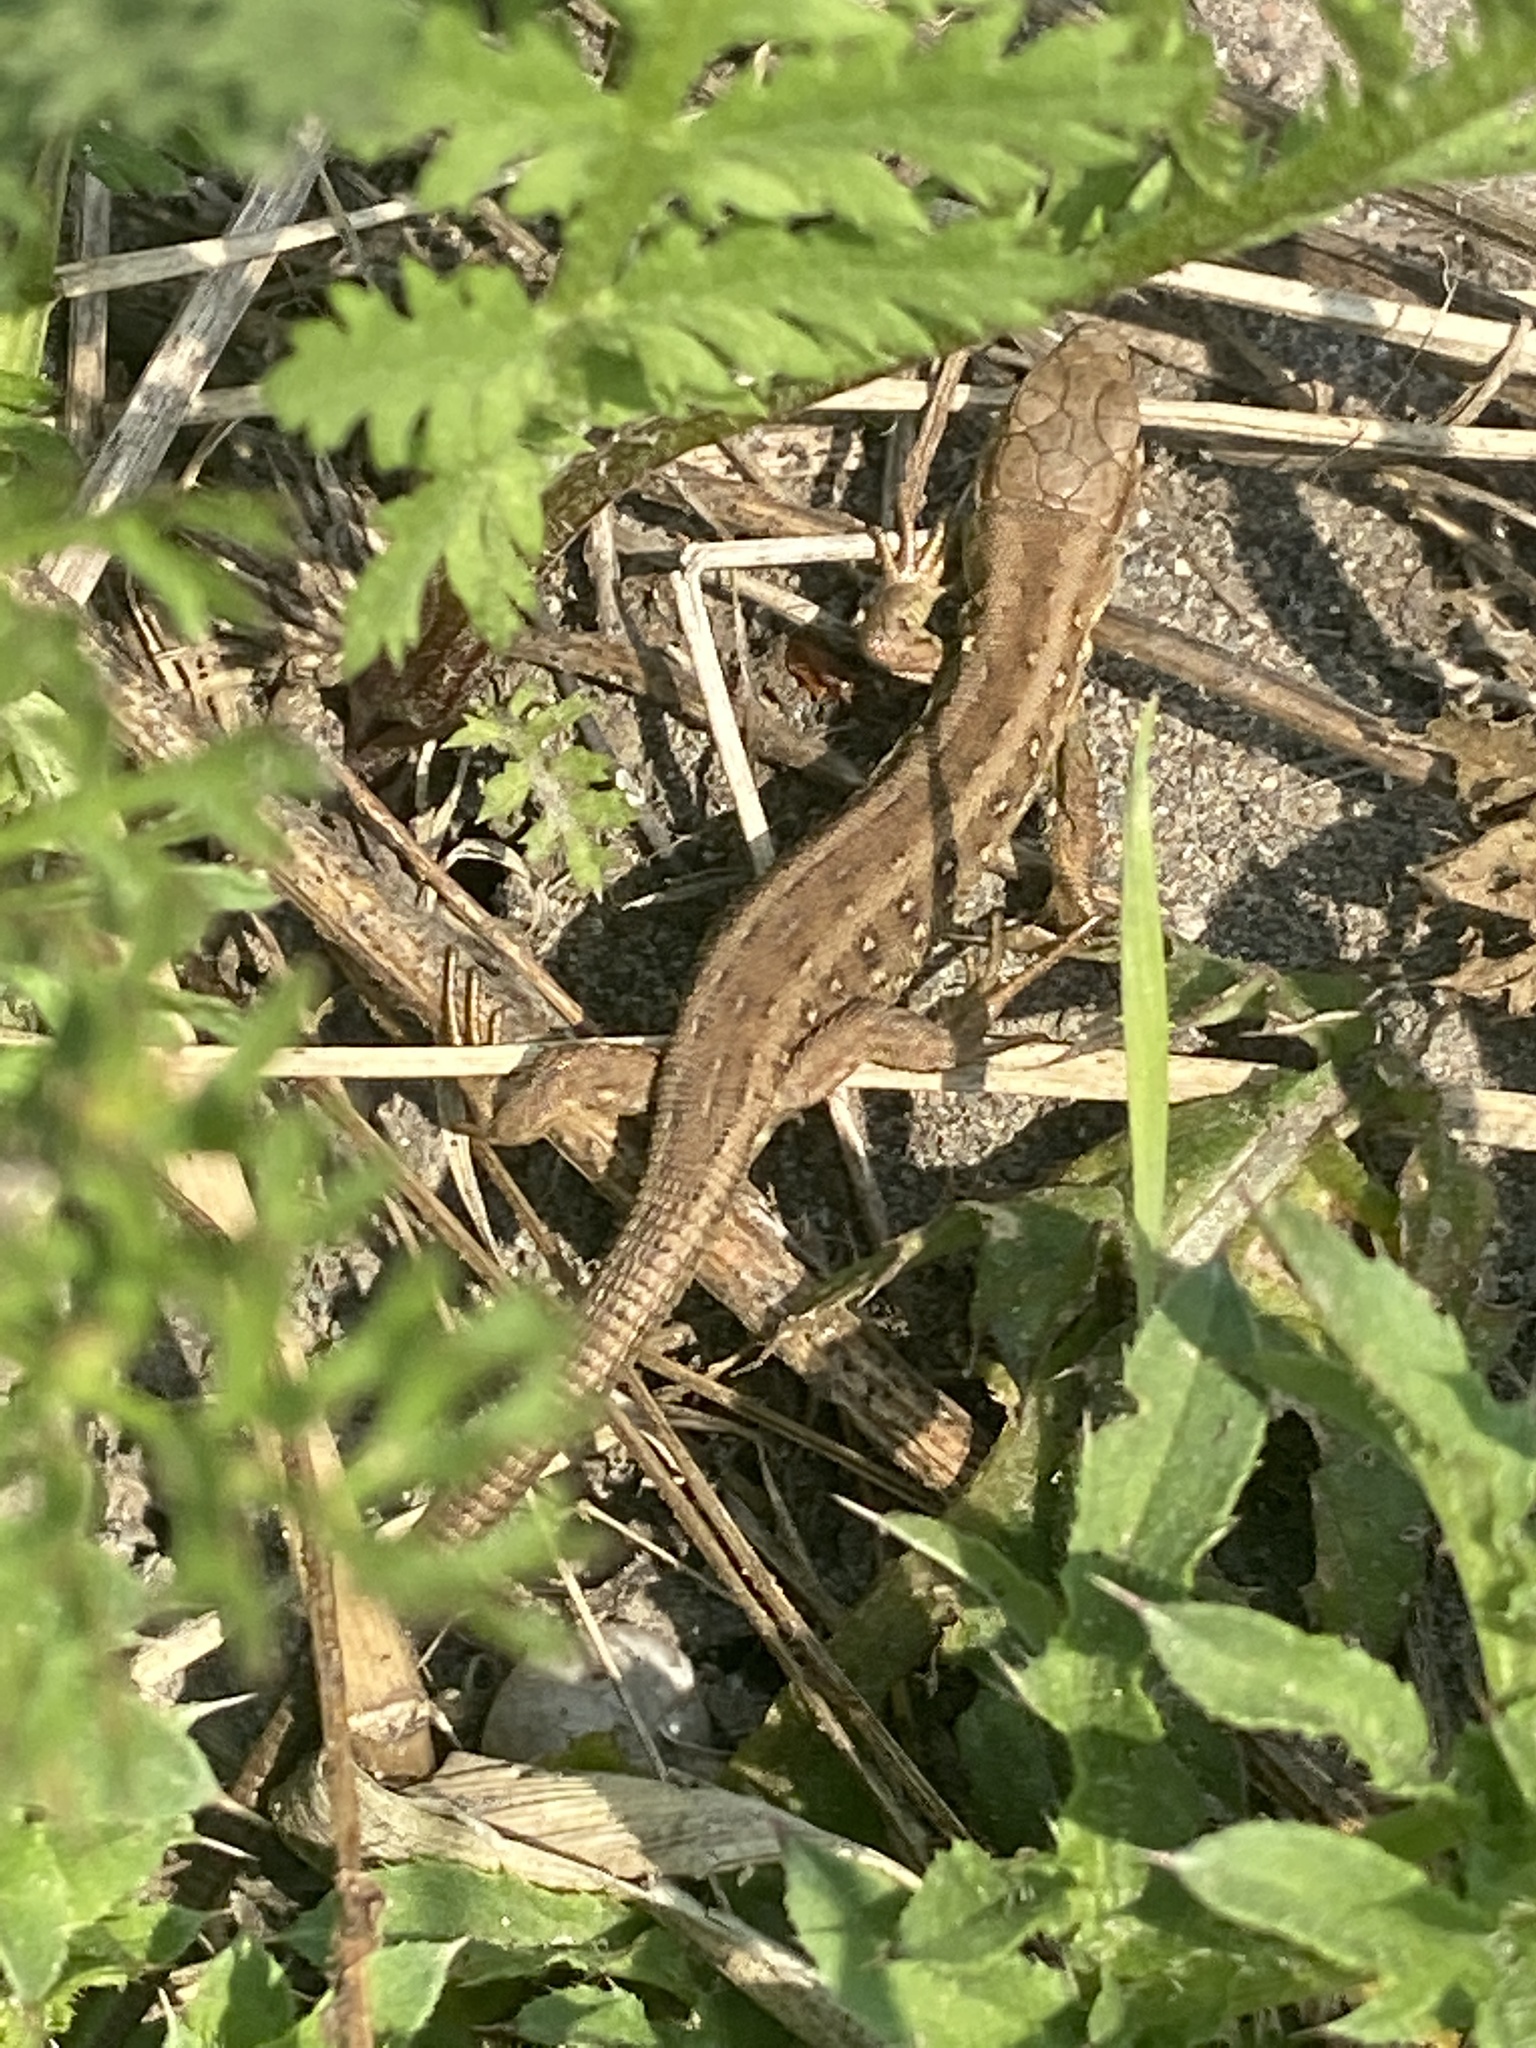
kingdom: Animalia
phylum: Chordata
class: Squamata
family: Lacertidae
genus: Lacerta
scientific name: Lacerta agilis
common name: Sand lizard
